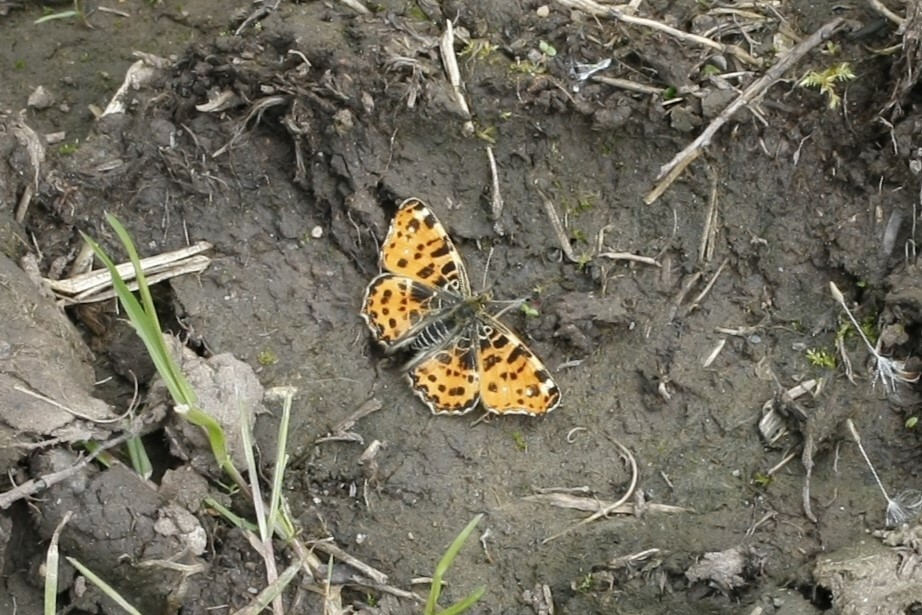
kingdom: Animalia
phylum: Arthropoda
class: Insecta
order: Lepidoptera
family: Nymphalidae
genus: Araschnia
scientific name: Araschnia levana
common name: Map butterfly
